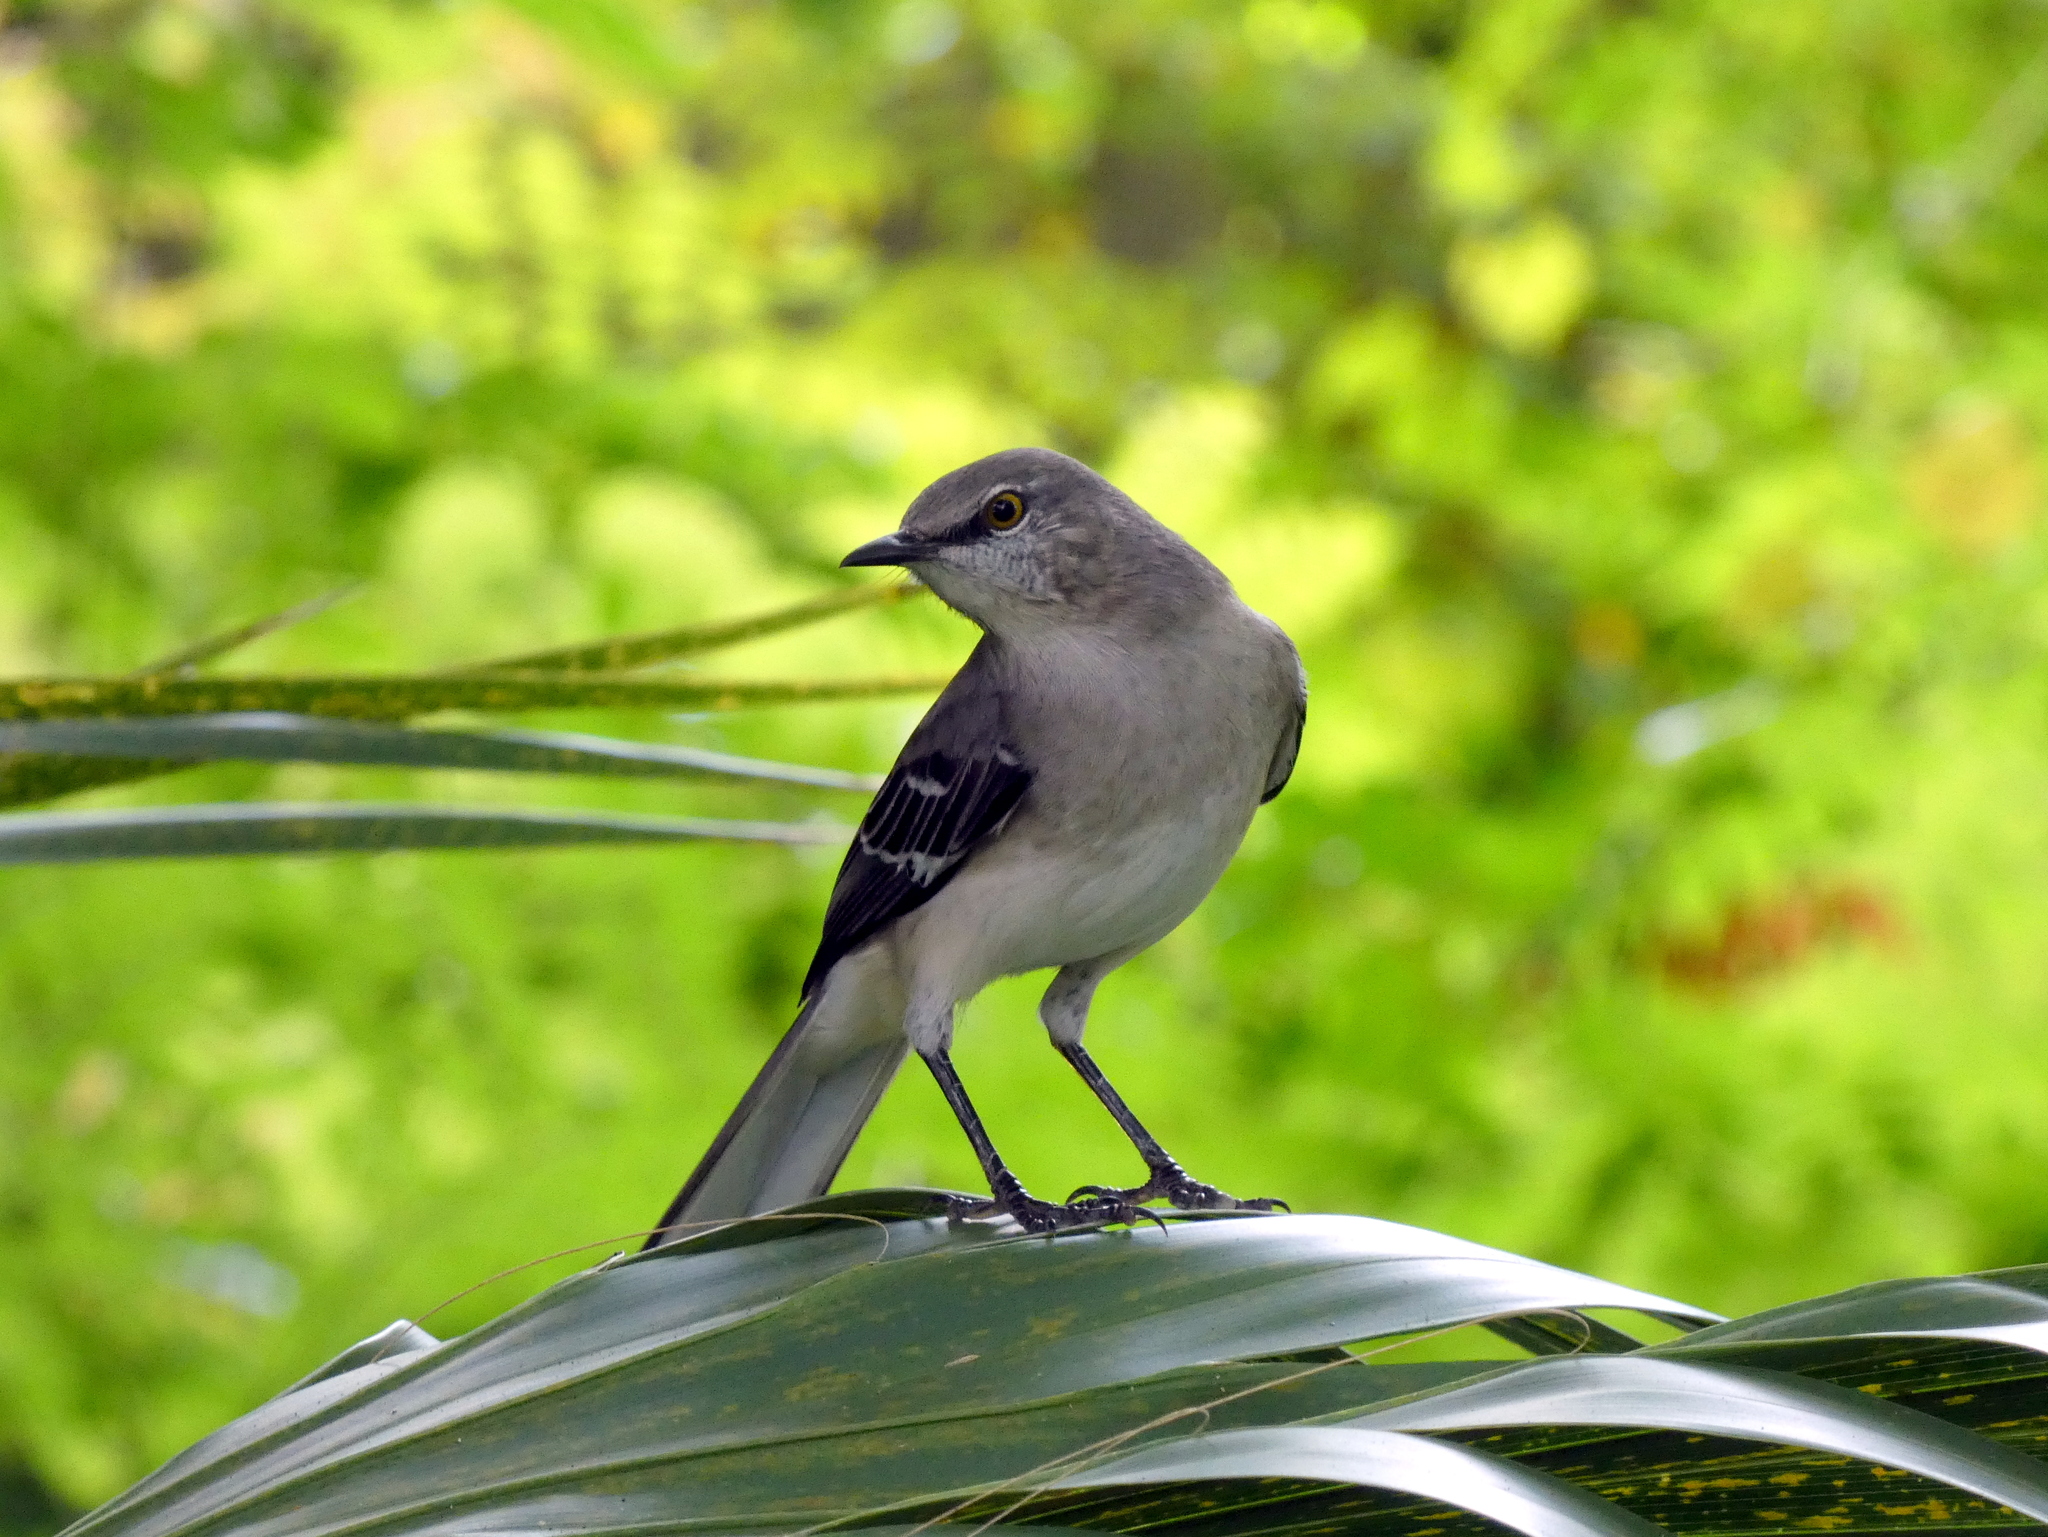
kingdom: Animalia
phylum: Chordata
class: Aves
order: Passeriformes
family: Mimidae
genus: Mimus
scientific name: Mimus polyglottos
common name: Northern mockingbird
